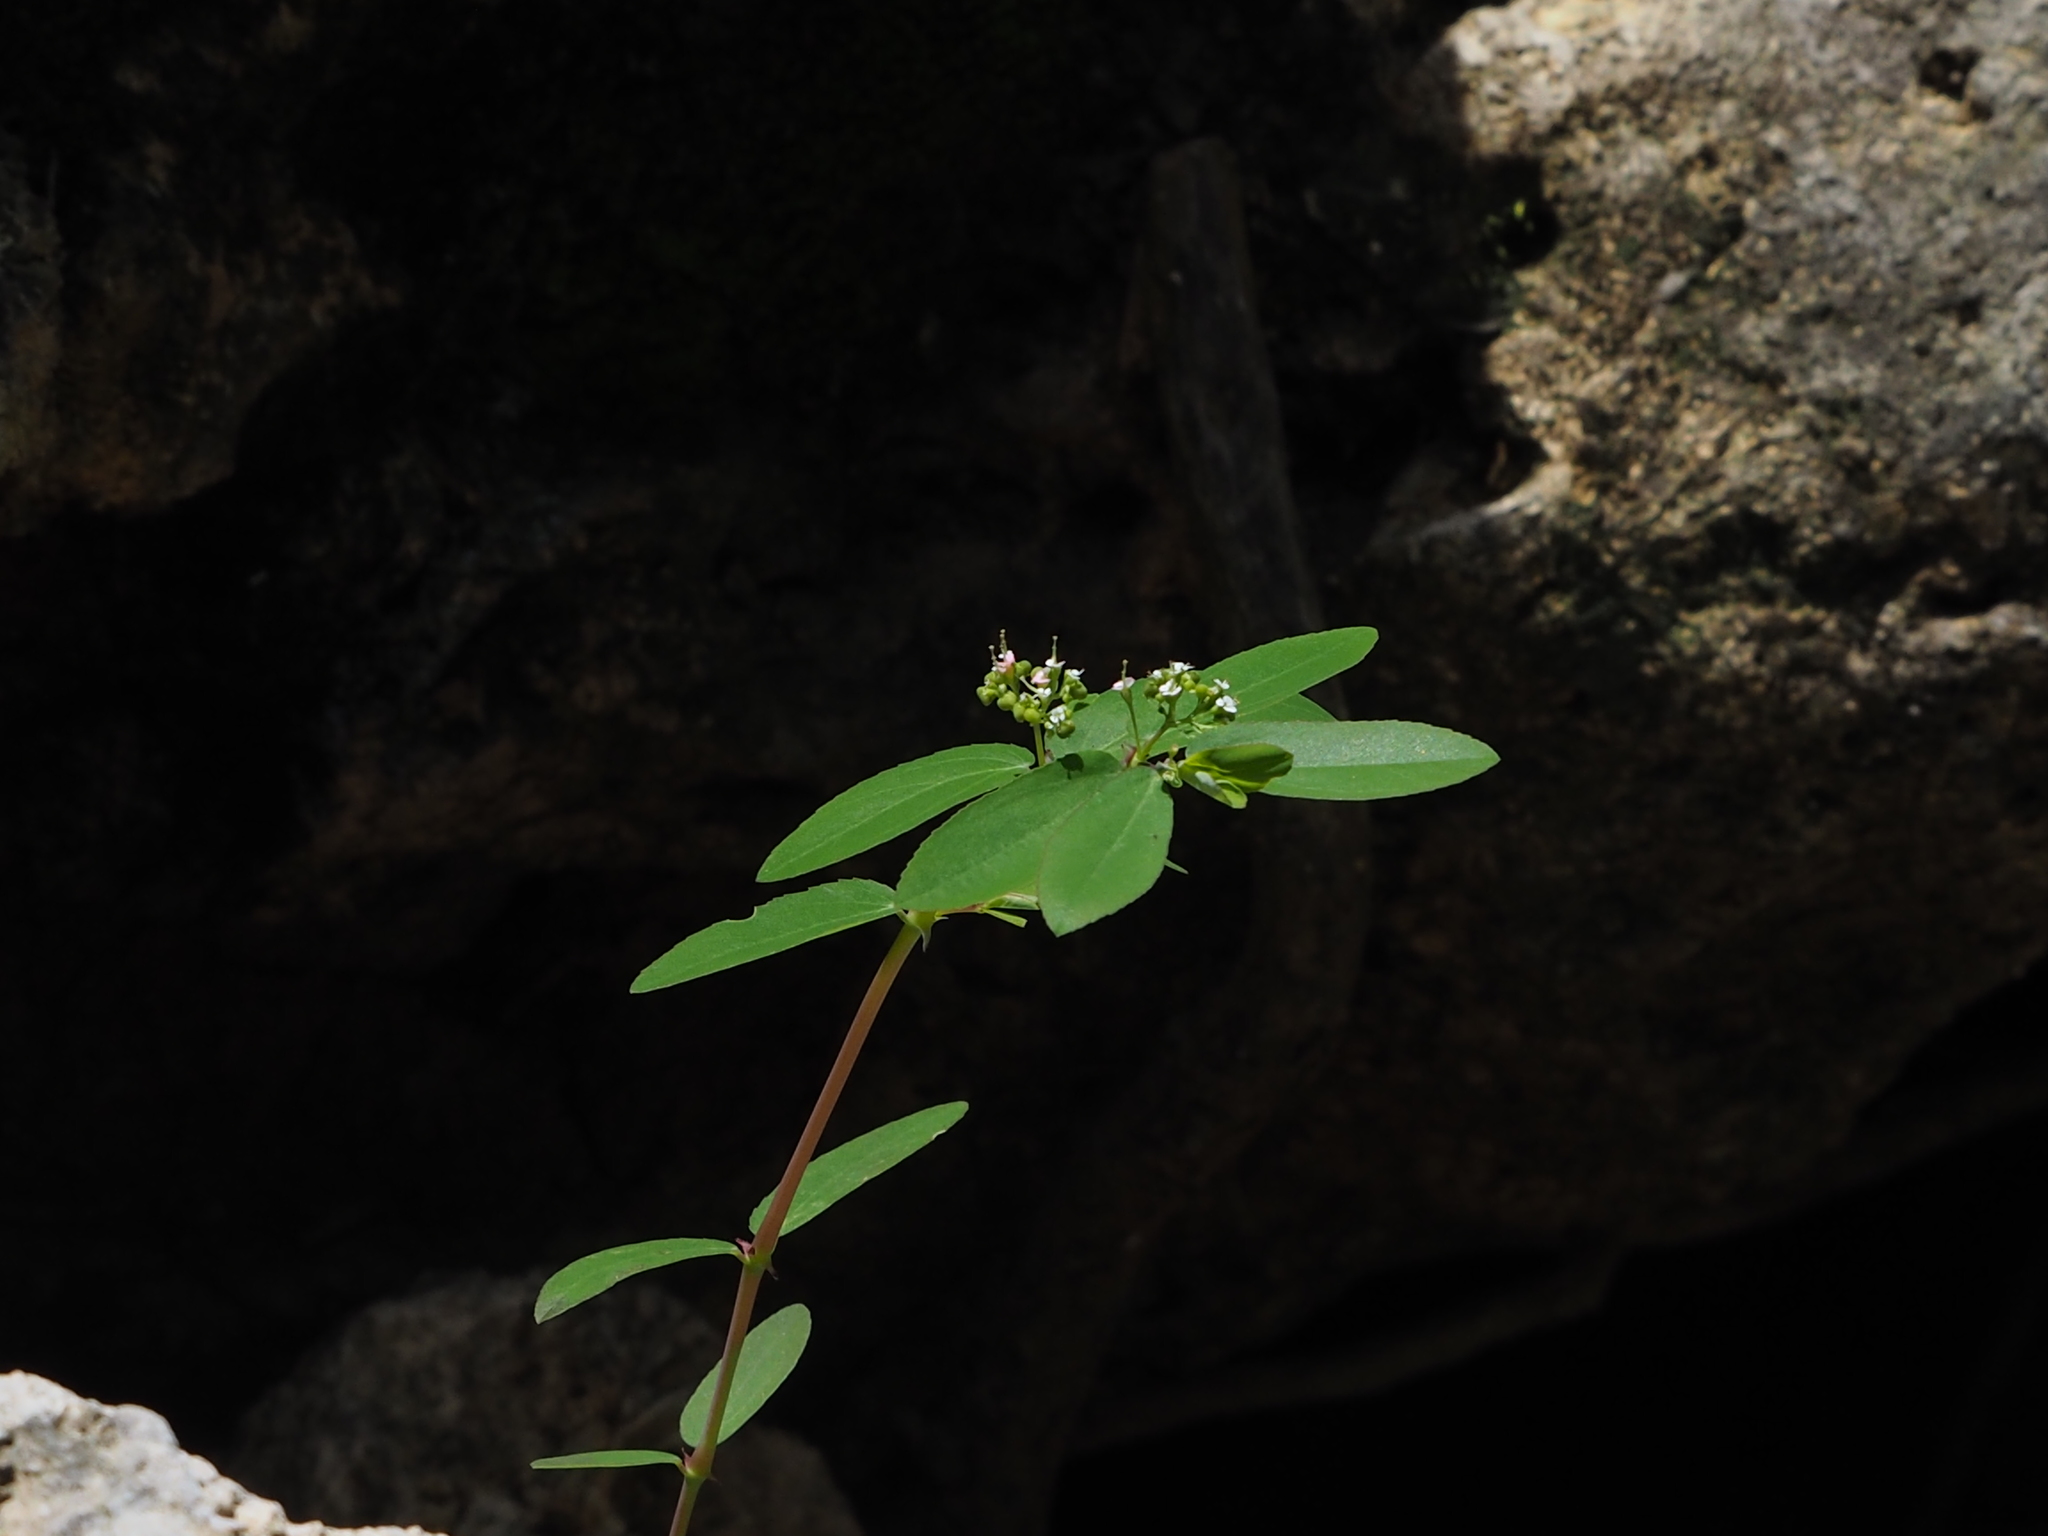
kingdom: Plantae
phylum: Tracheophyta
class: Magnoliopsida
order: Malpighiales
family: Euphorbiaceae
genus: Euphorbia
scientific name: Euphorbia hypericifolia
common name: Graceful sandmat
